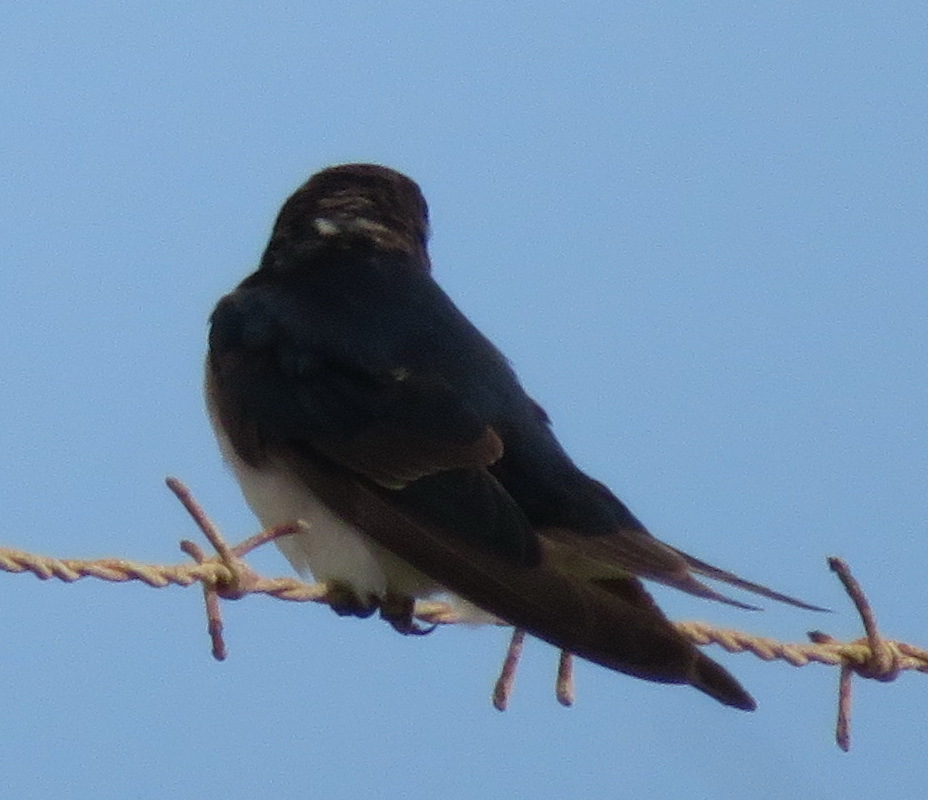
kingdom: Animalia
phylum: Chordata
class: Aves
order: Passeriformes
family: Hirundinidae
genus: Hirundo
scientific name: Hirundo rustica
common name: Barn swallow
